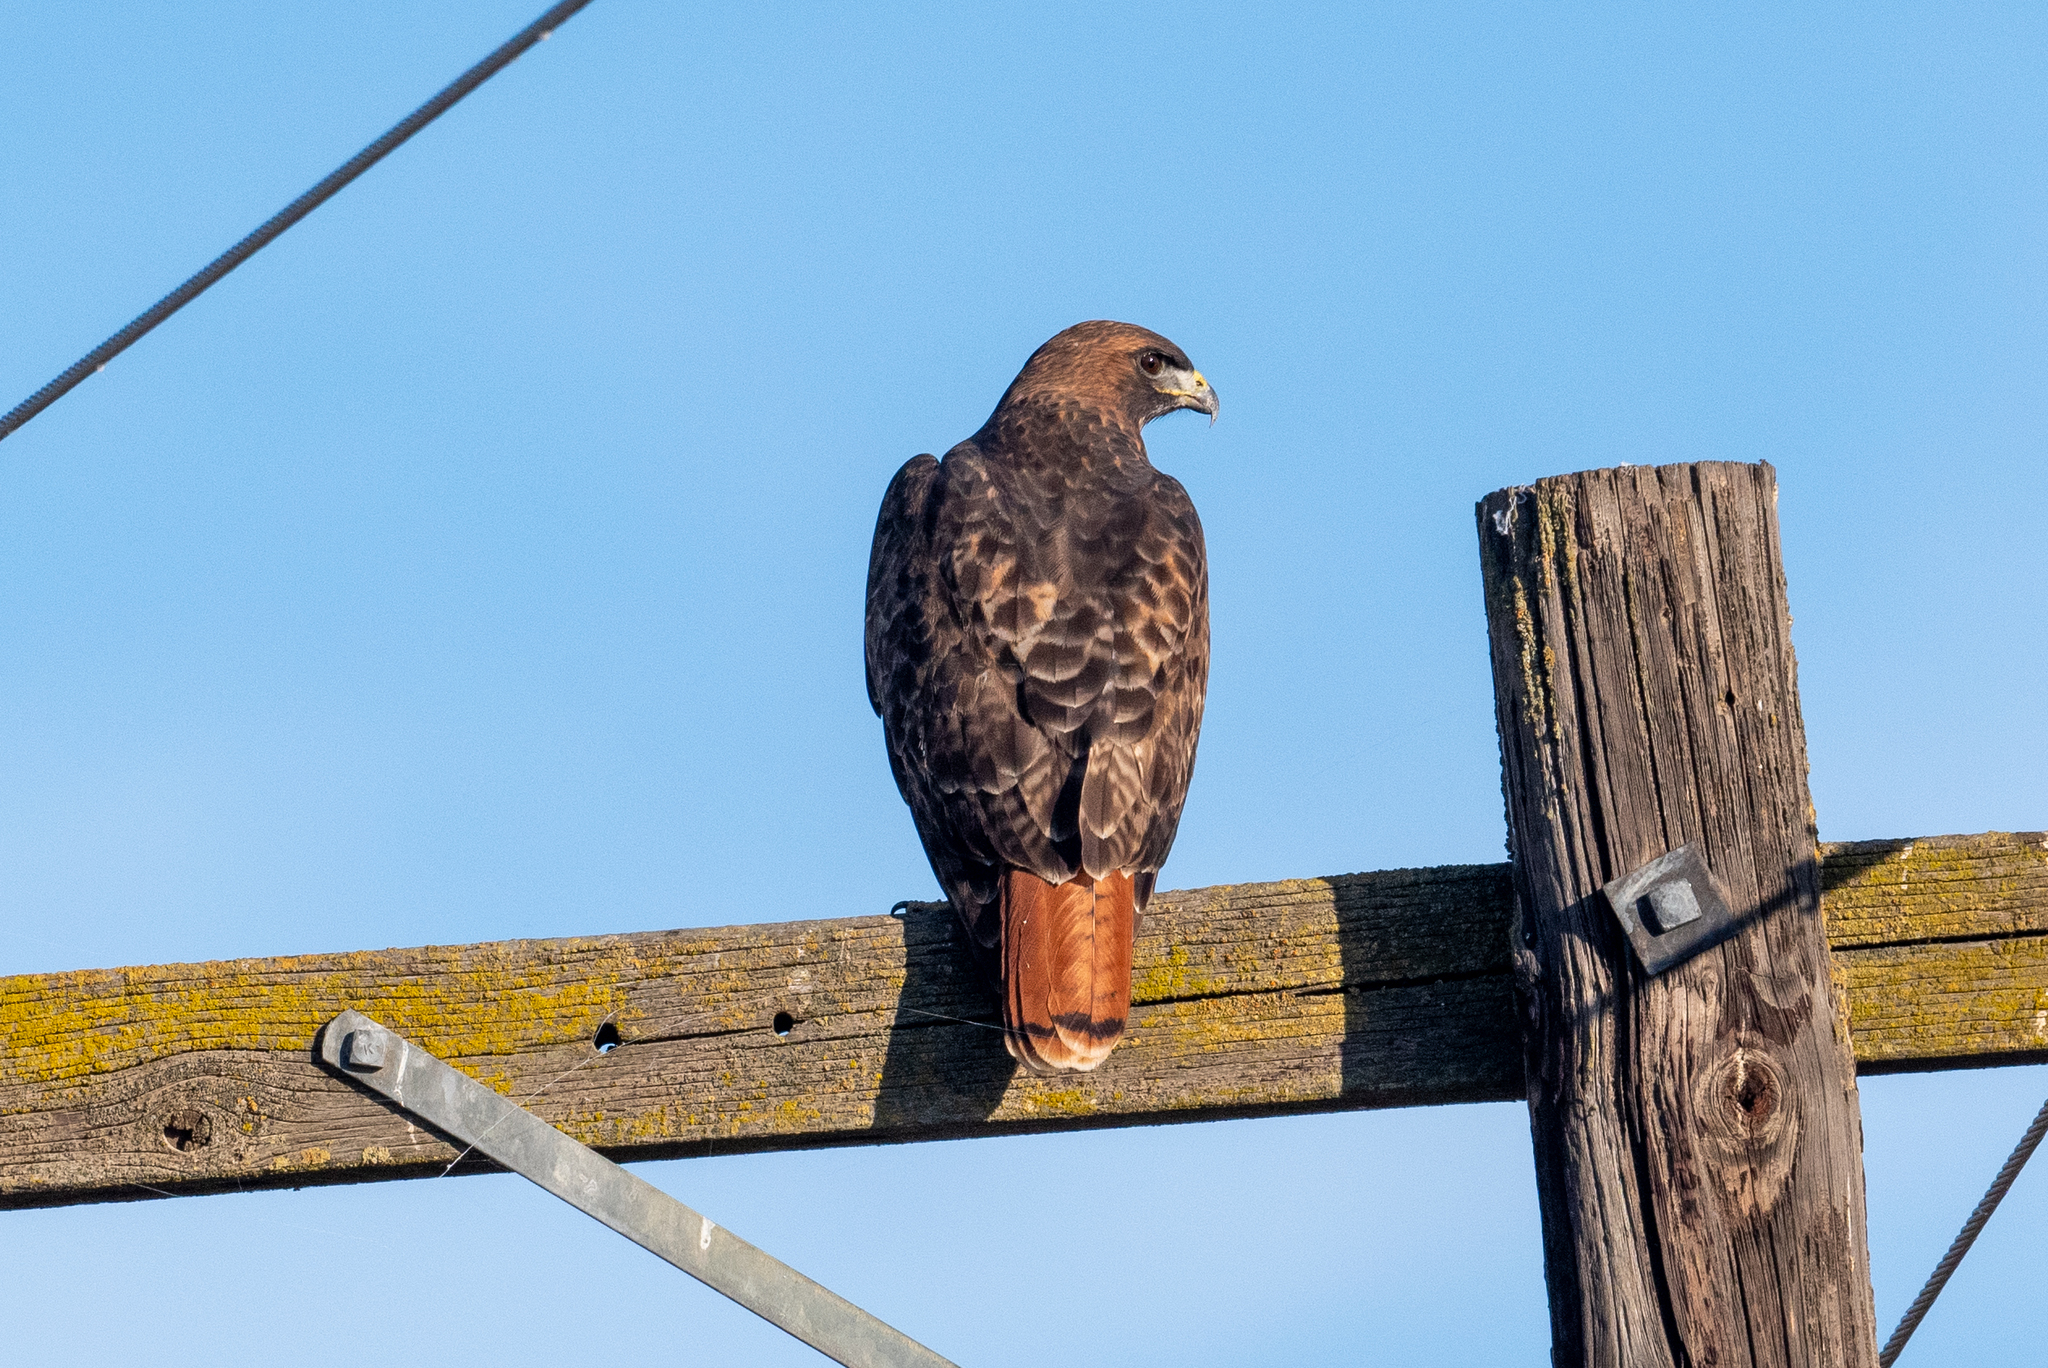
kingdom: Animalia
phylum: Chordata
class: Aves
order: Accipitriformes
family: Accipitridae
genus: Buteo
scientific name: Buteo jamaicensis
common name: Red-tailed hawk
